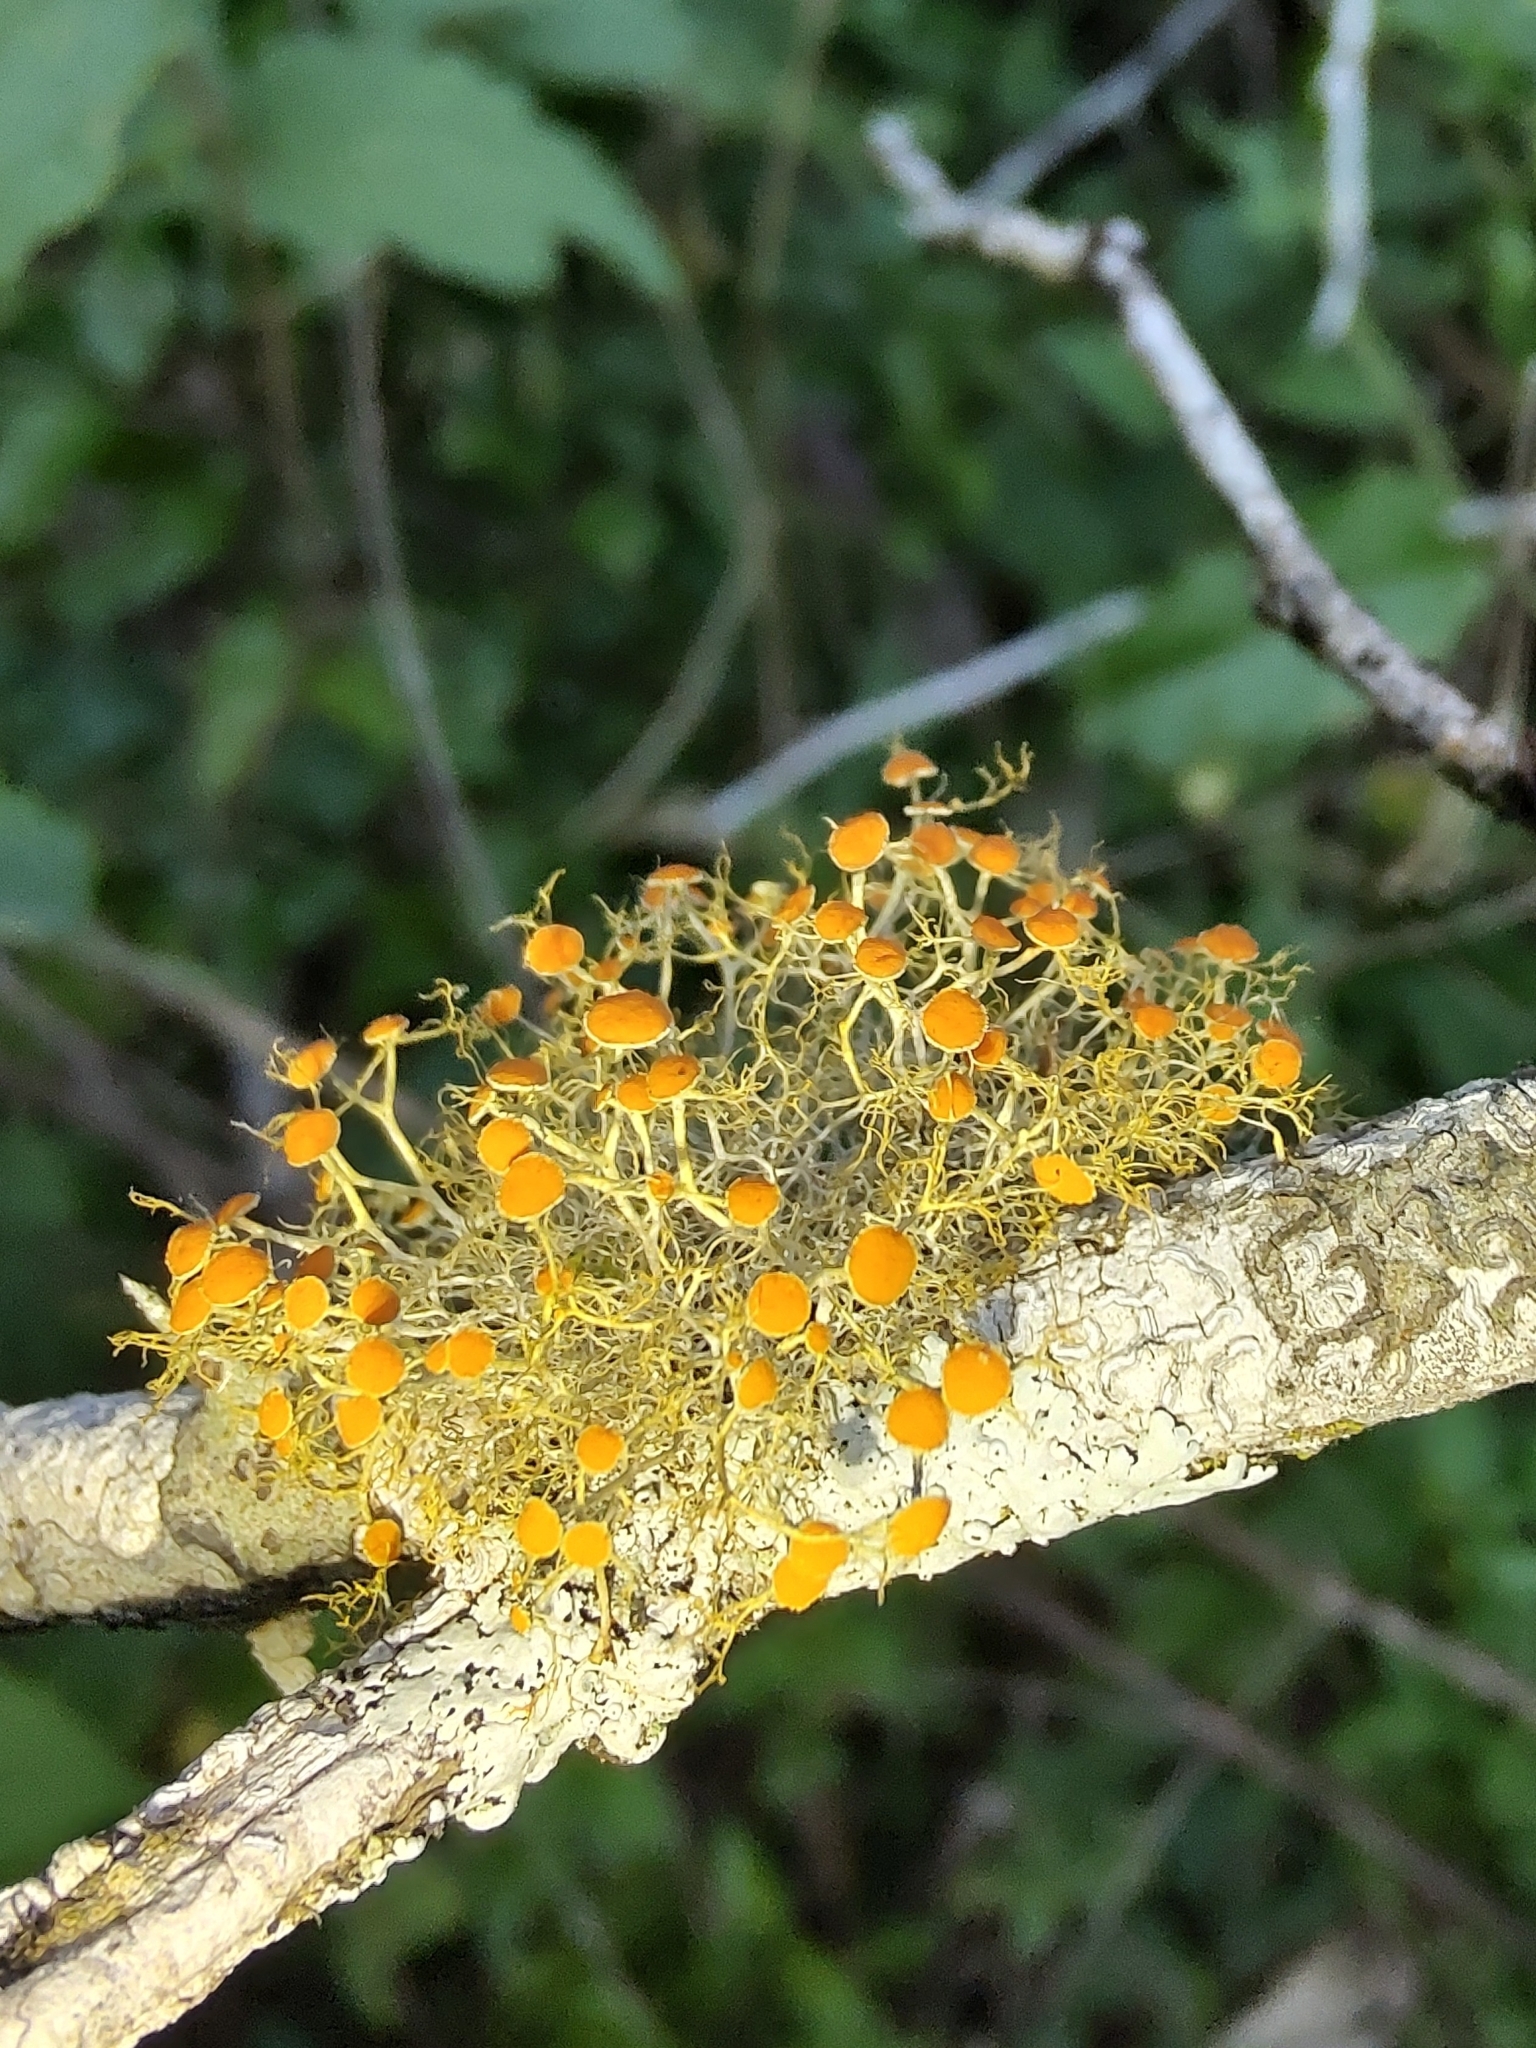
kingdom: Fungi
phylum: Ascomycota
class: Lecanoromycetes
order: Teloschistales
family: Teloschistaceae
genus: Teloschistes
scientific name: Teloschistes exilis
